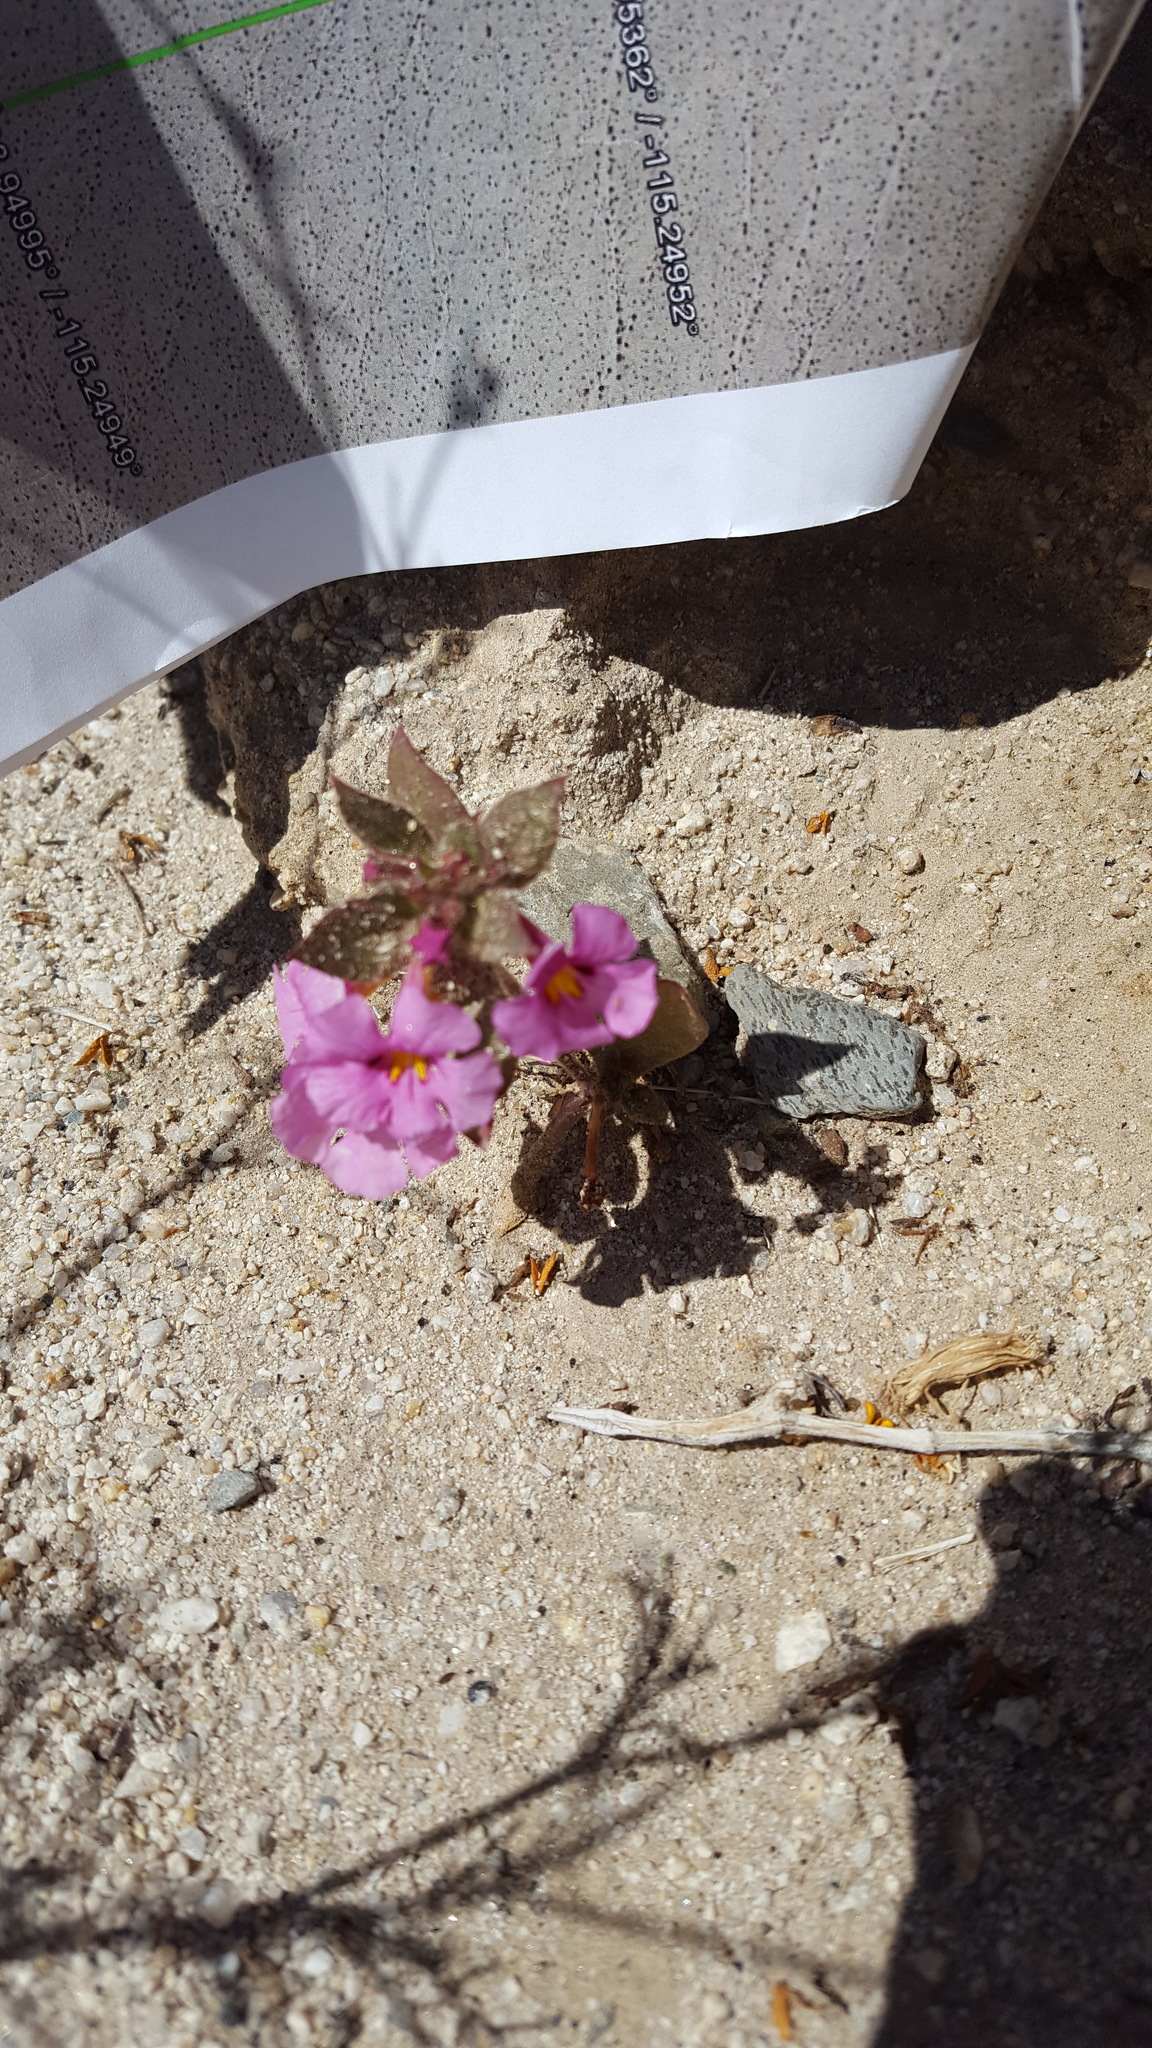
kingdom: Plantae
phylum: Tracheophyta
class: Magnoliopsida
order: Lamiales
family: Phrymaceae
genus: Diplacus
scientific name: Diplacus bigelovii
